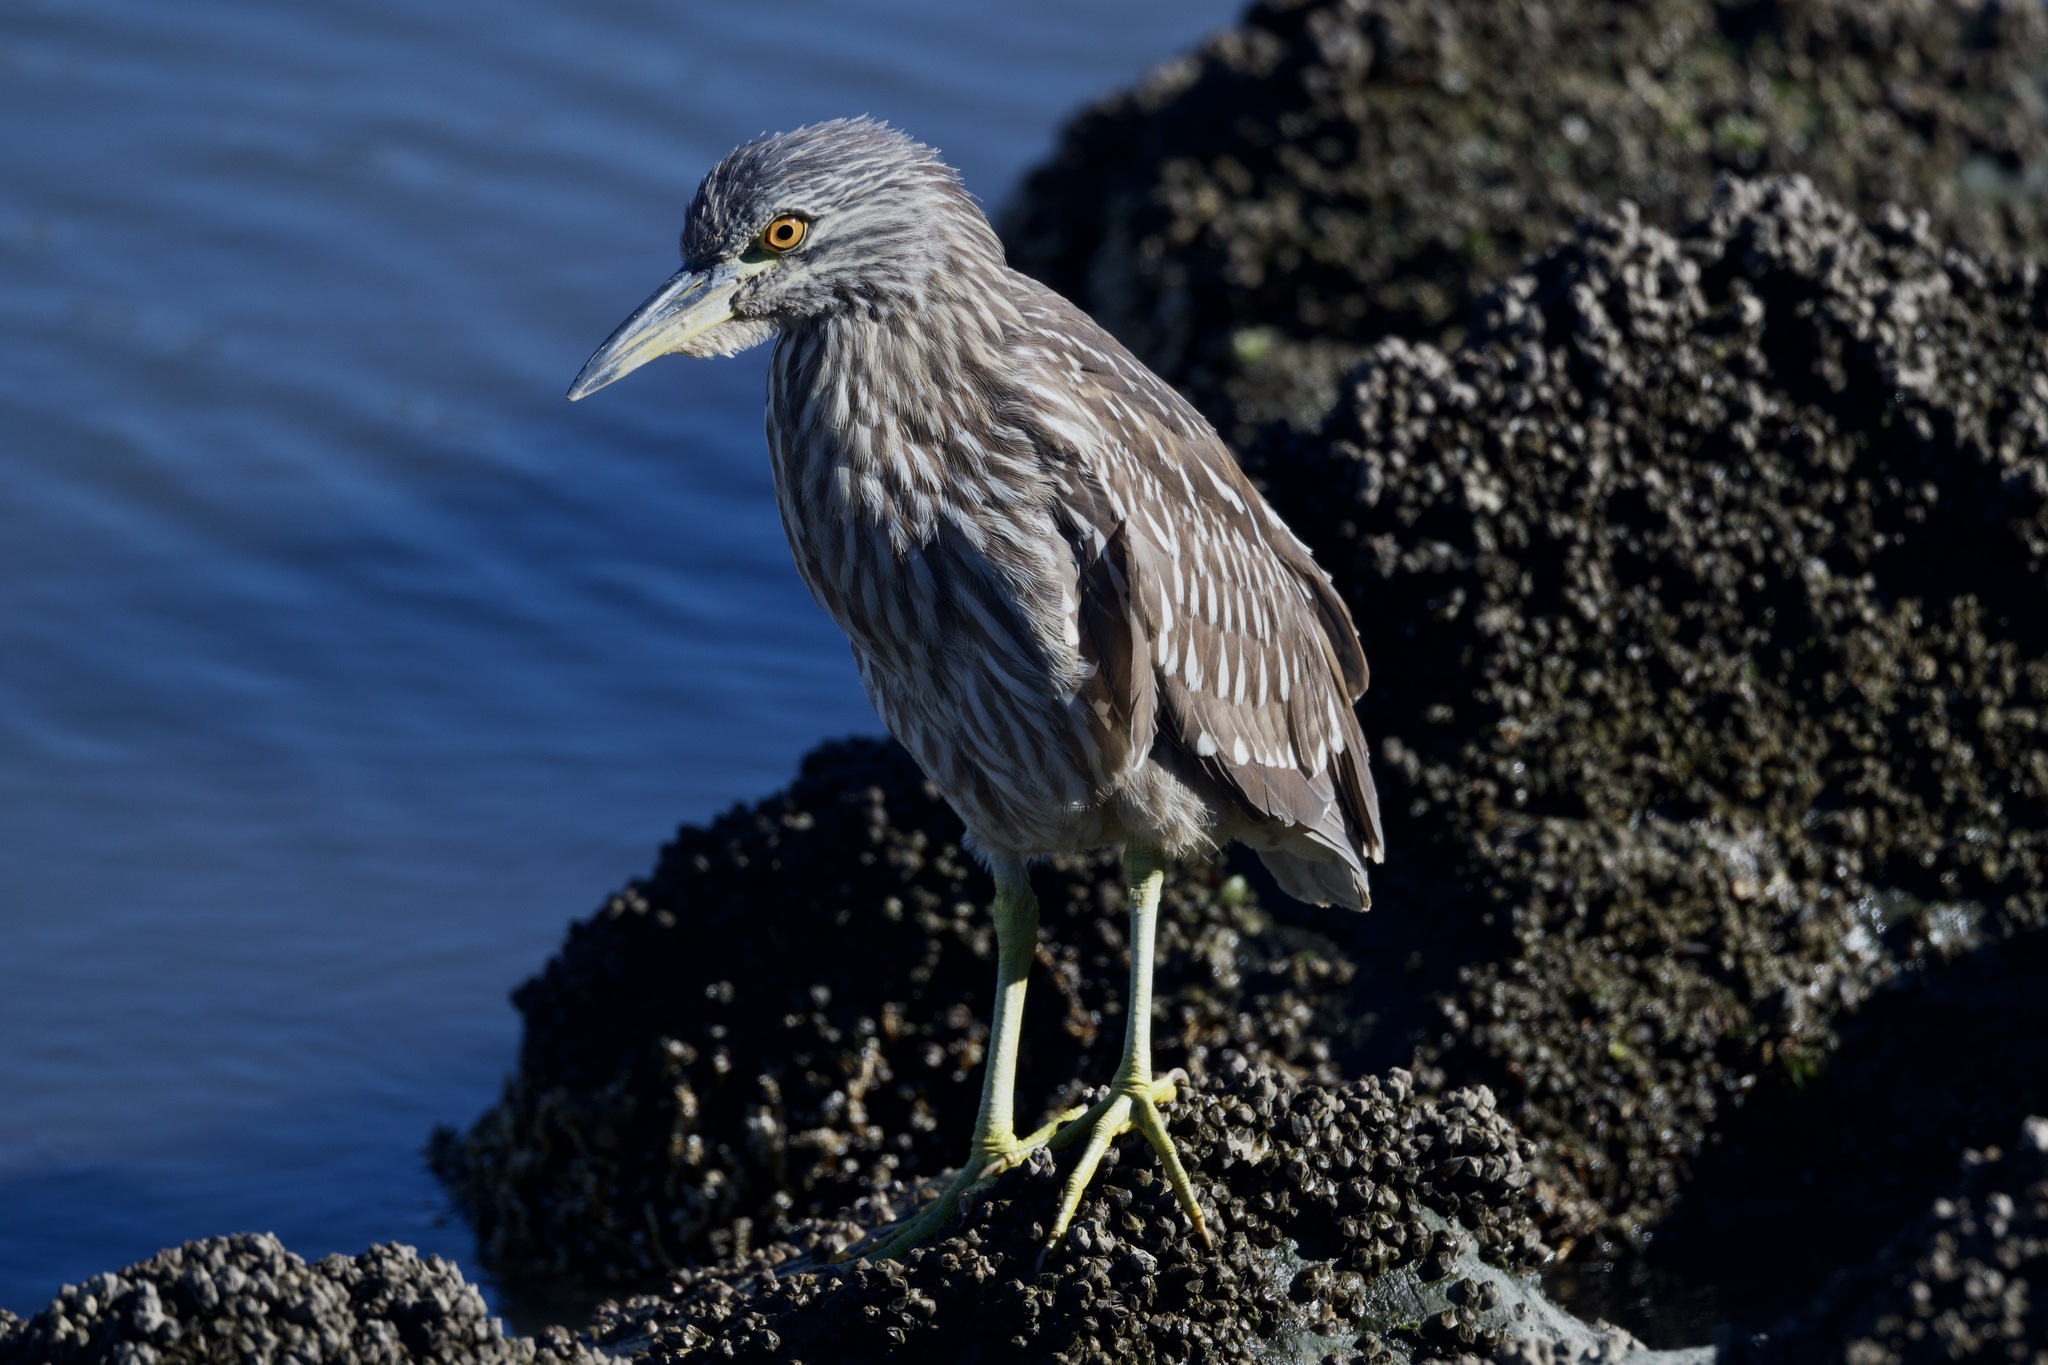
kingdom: Animalia
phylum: Chordata
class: Aves
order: Pelecaniformes
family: Ardeidae
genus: Nycticorax
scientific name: Nycticorax nycticorax
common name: Black-crowned night heron
